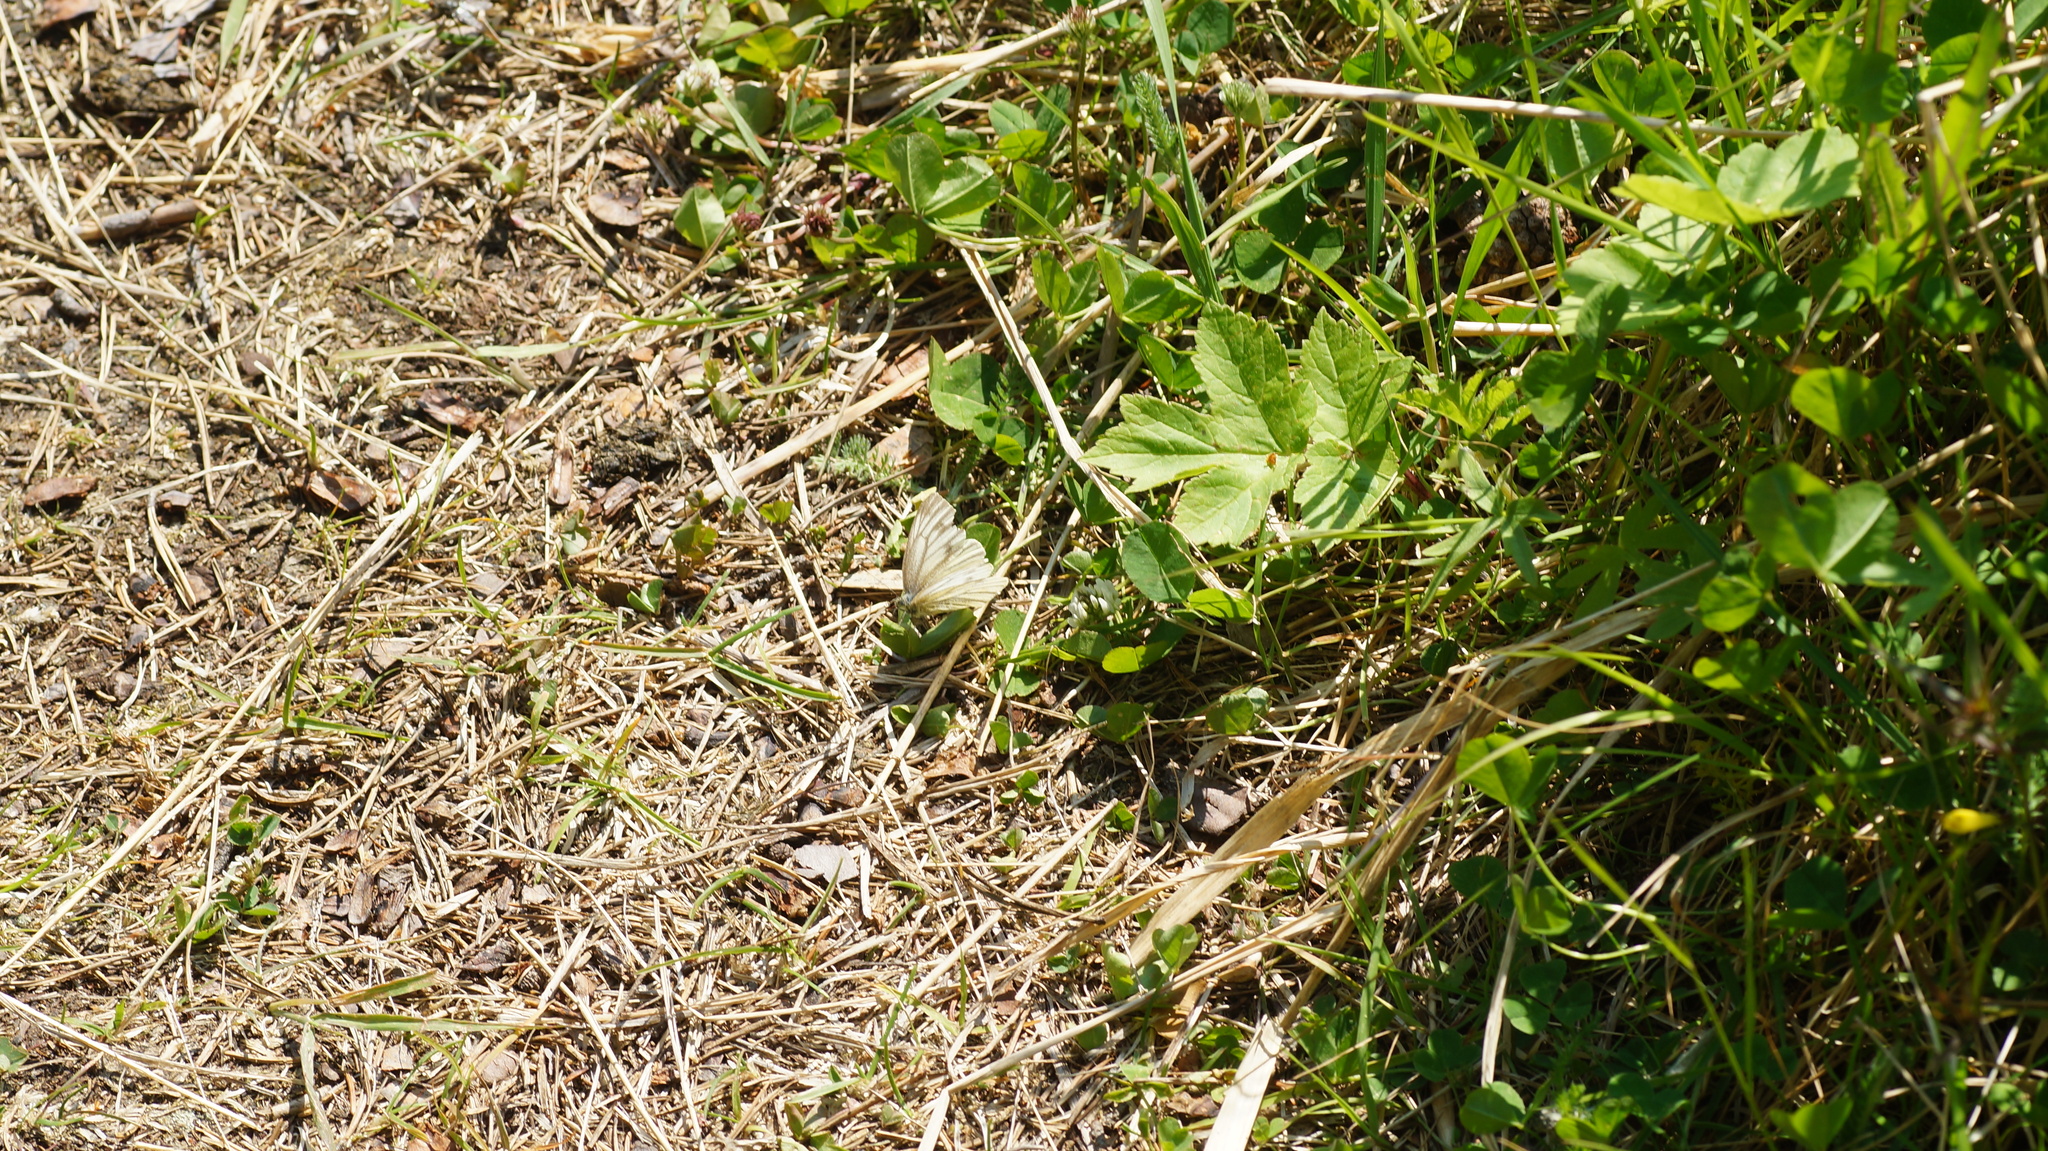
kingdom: Animalia
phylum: Arthropoda
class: Insecta
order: Lepidoptera
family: Pieridae
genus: Pieris
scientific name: Pieris napi
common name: Green-veined white
